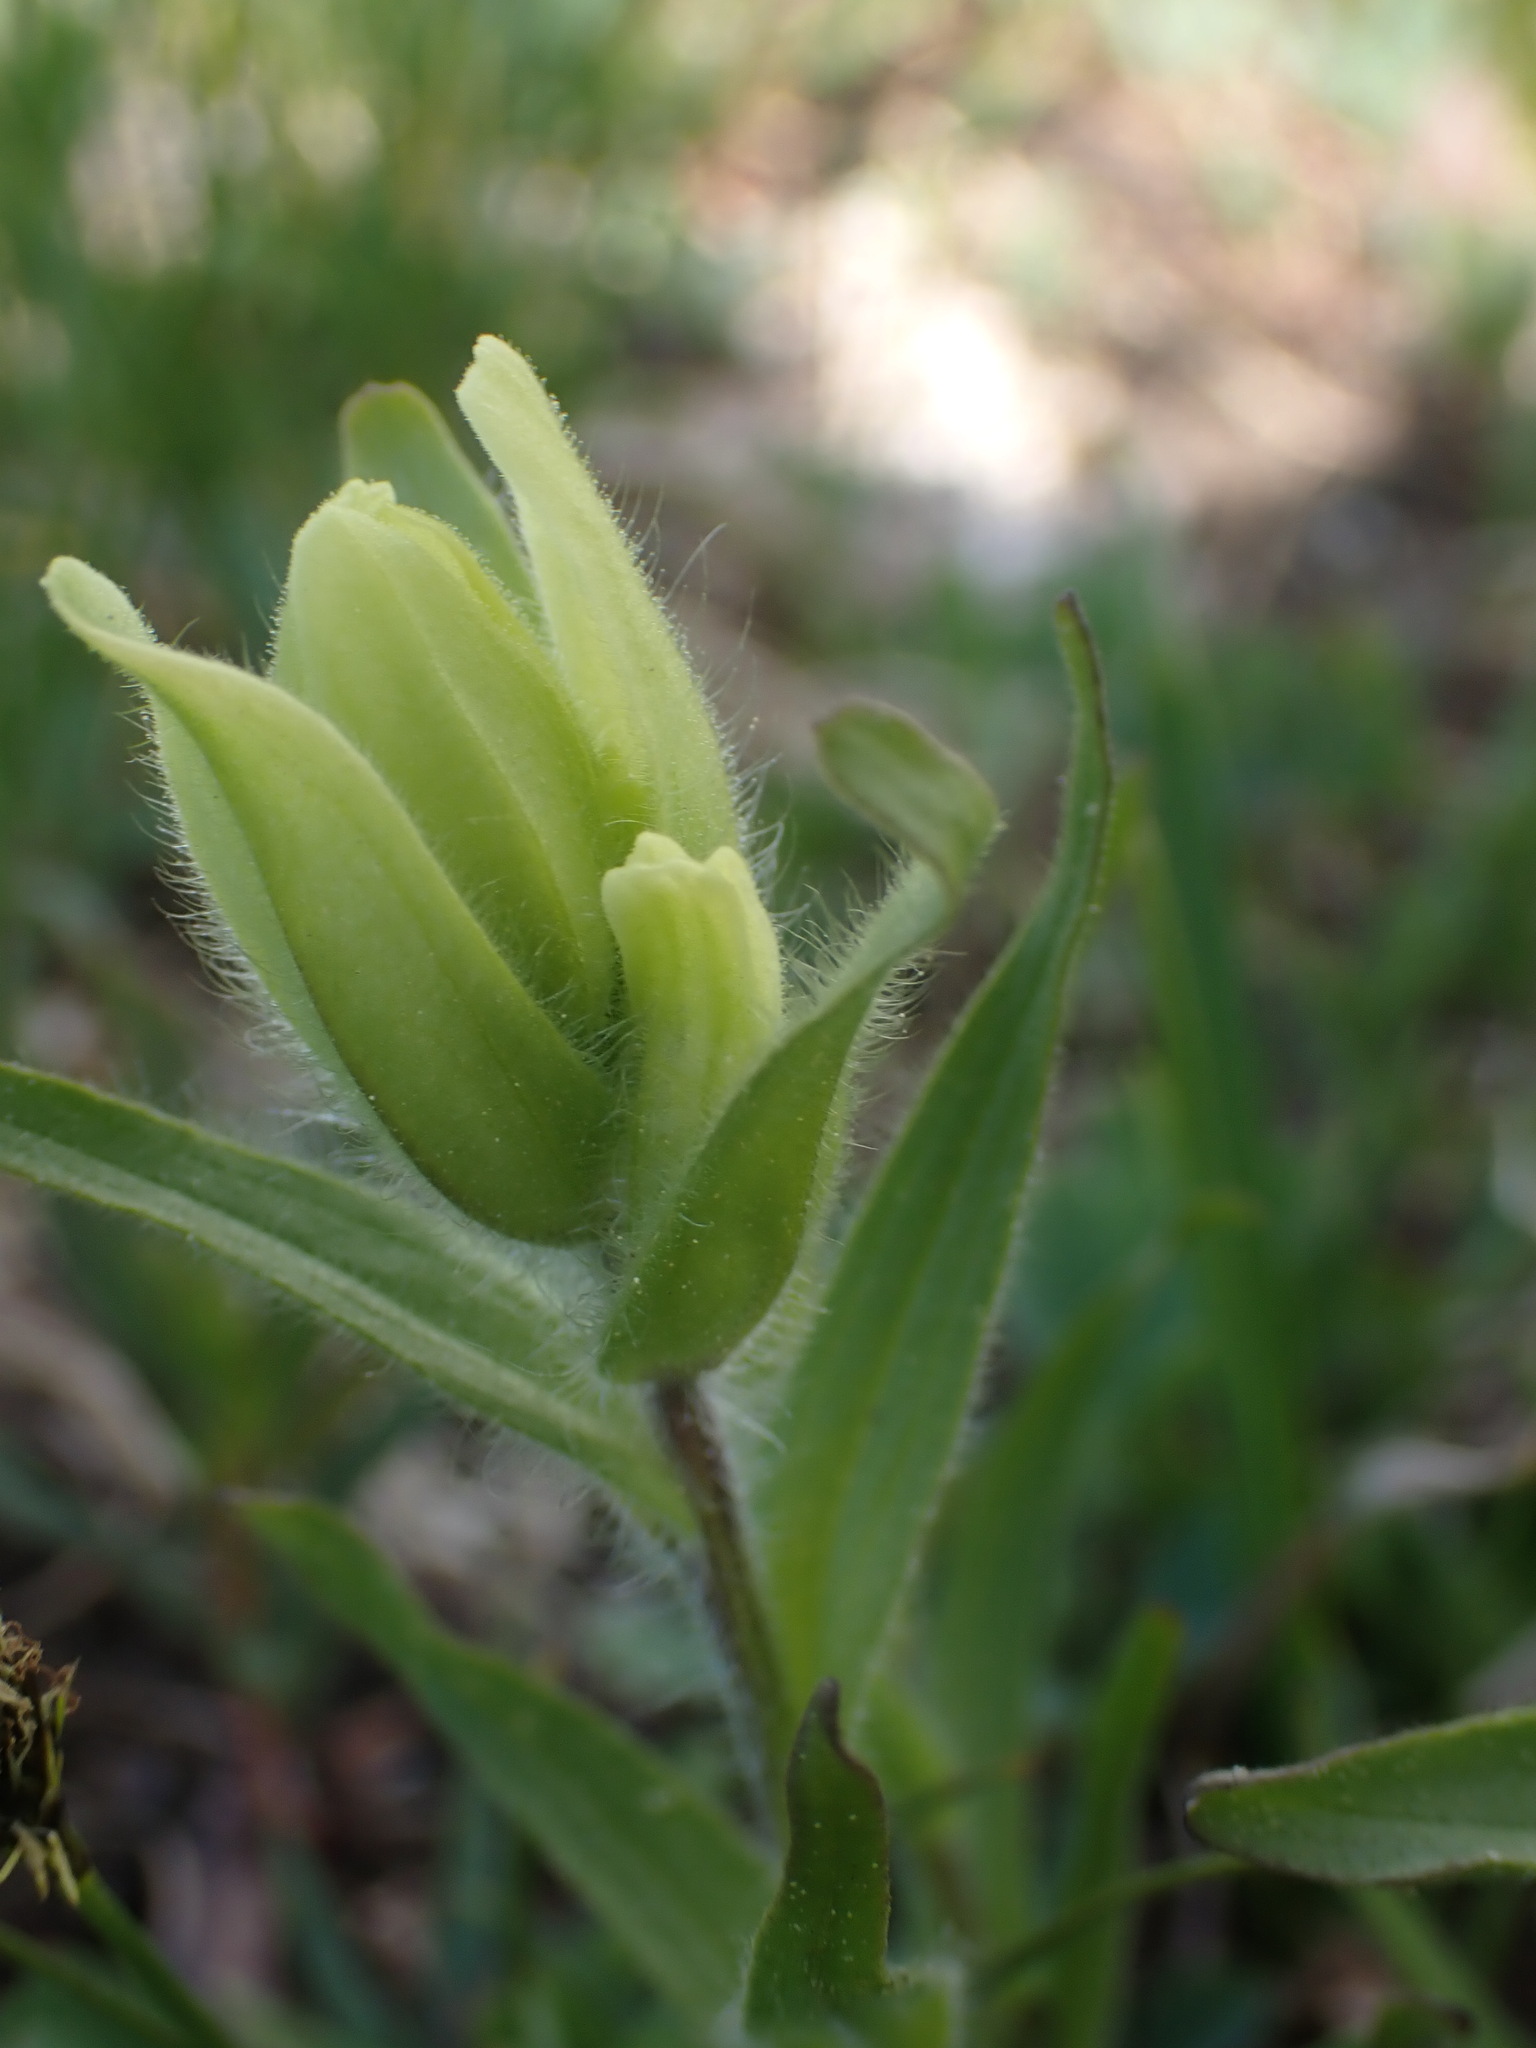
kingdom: Plantae
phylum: Tracheophyta
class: Magnoliopsida
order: Lamiales
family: Orobanchaceae
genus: Castilleja
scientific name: Castilleja occidentalis
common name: Western paintbrush
